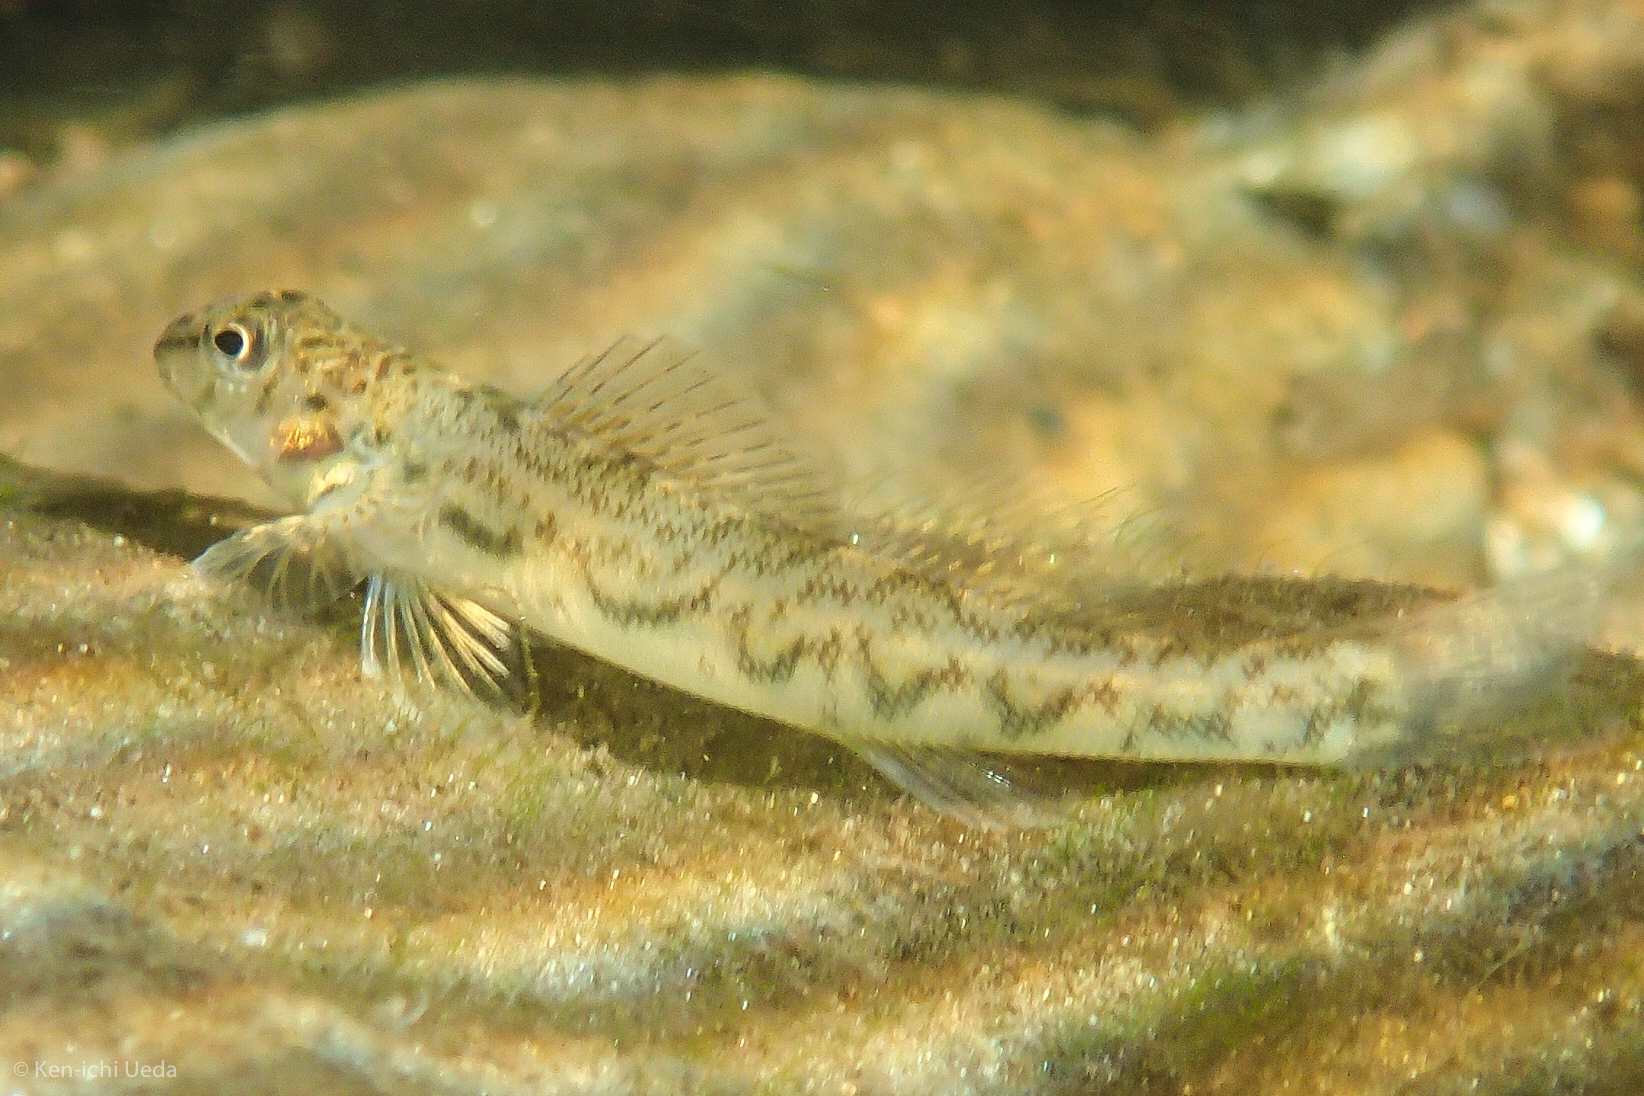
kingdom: Animalia
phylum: Chordata
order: Perciformes
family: Percidae
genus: Etheostoma
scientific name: Etheostoma blennioides
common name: Greenside darter
